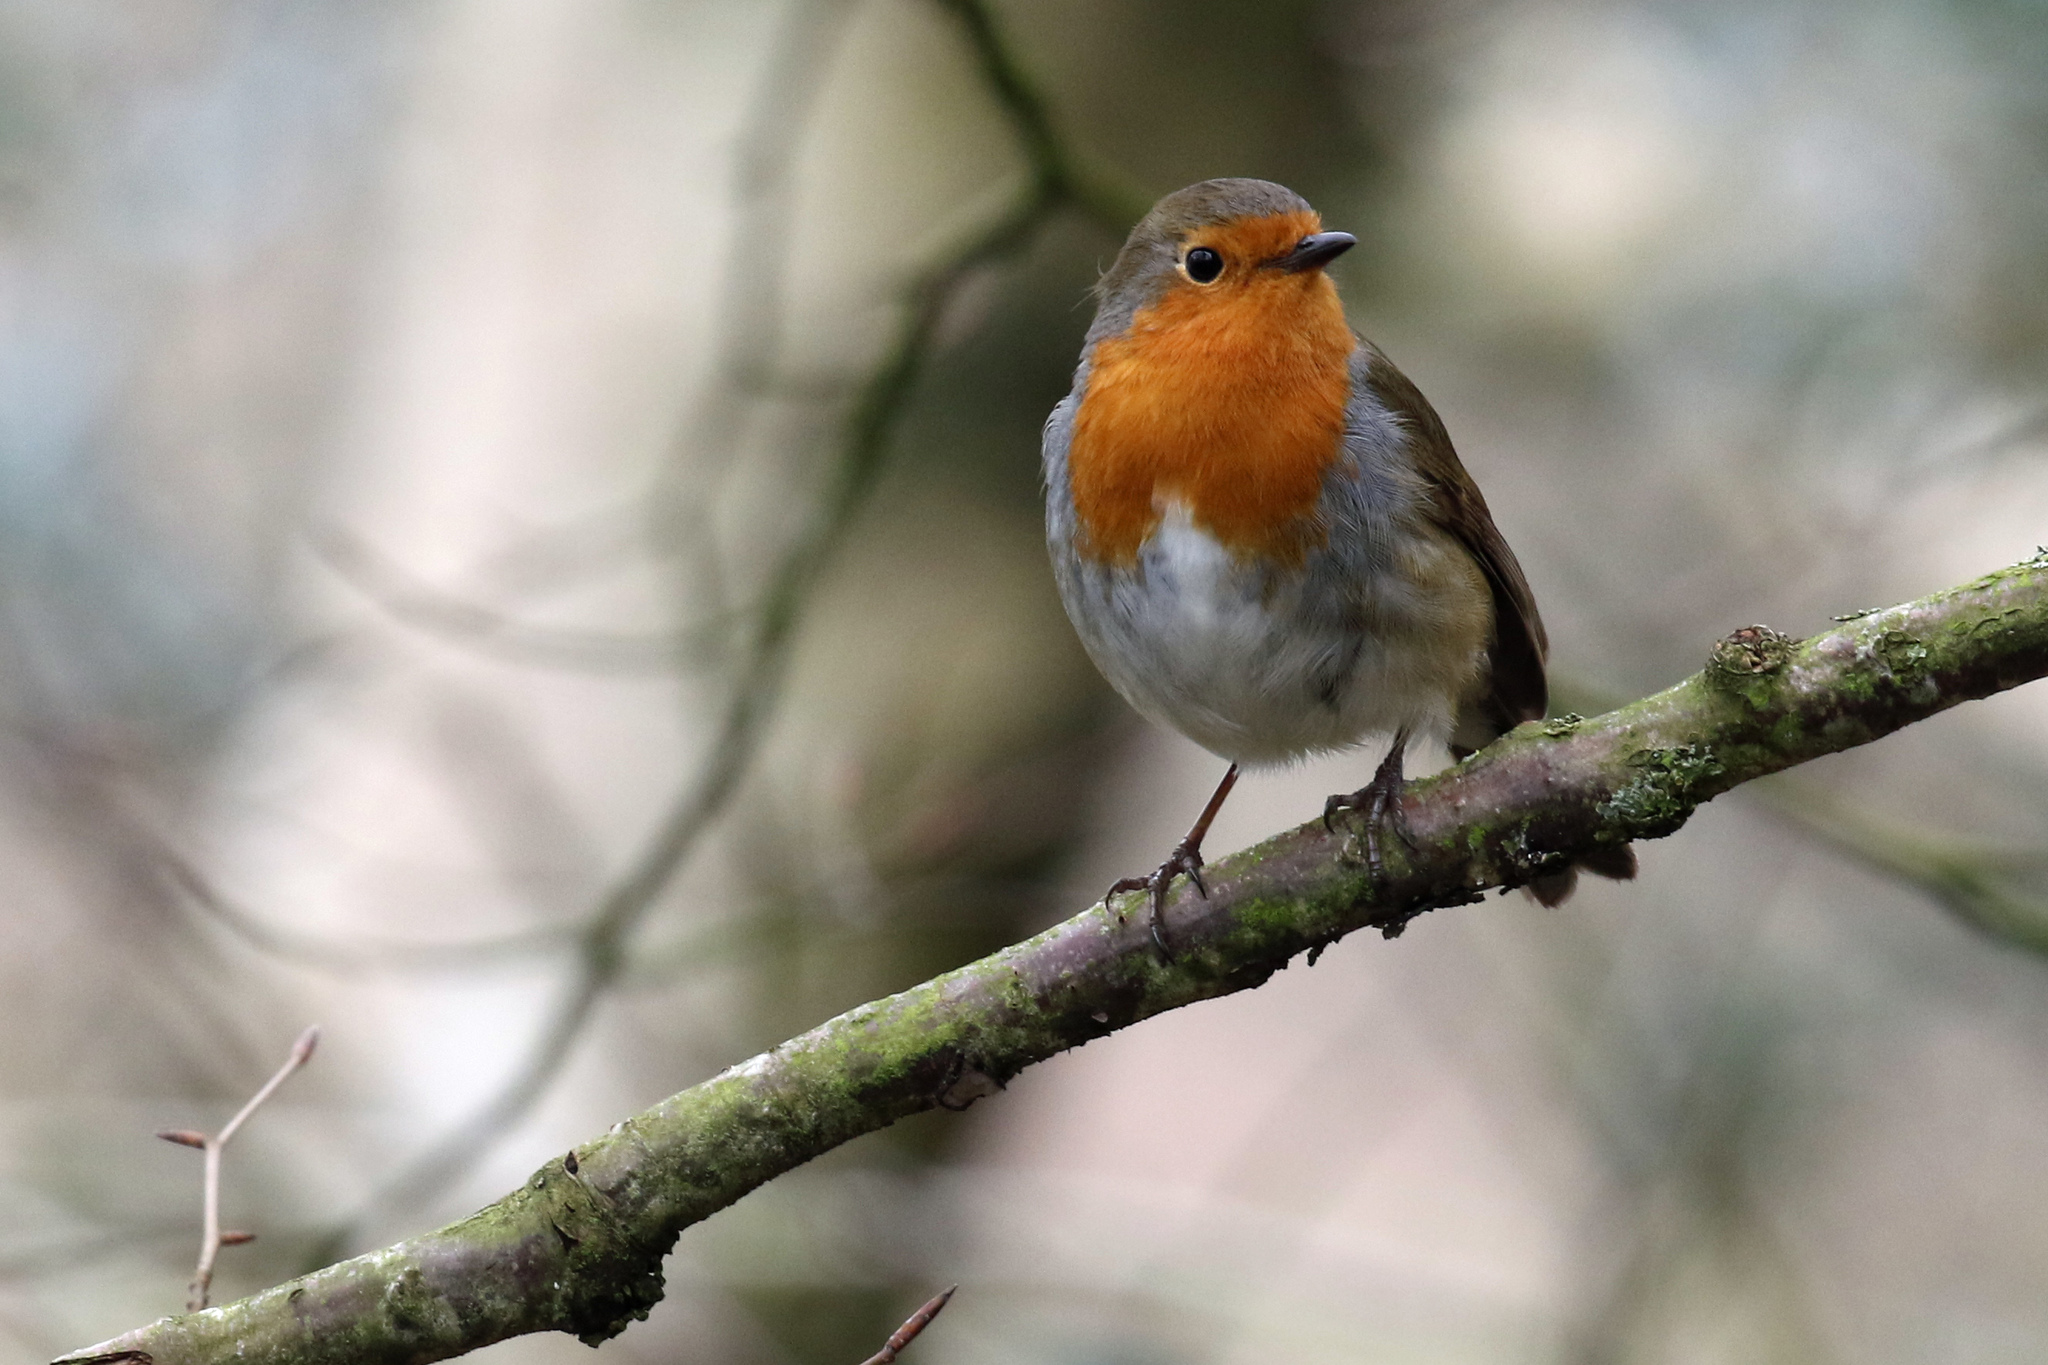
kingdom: Animalia
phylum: Chordata
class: Aves
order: Passeriformes
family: Muscicapidae
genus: Erithacus
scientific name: Erithacus rubecula
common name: European robin
